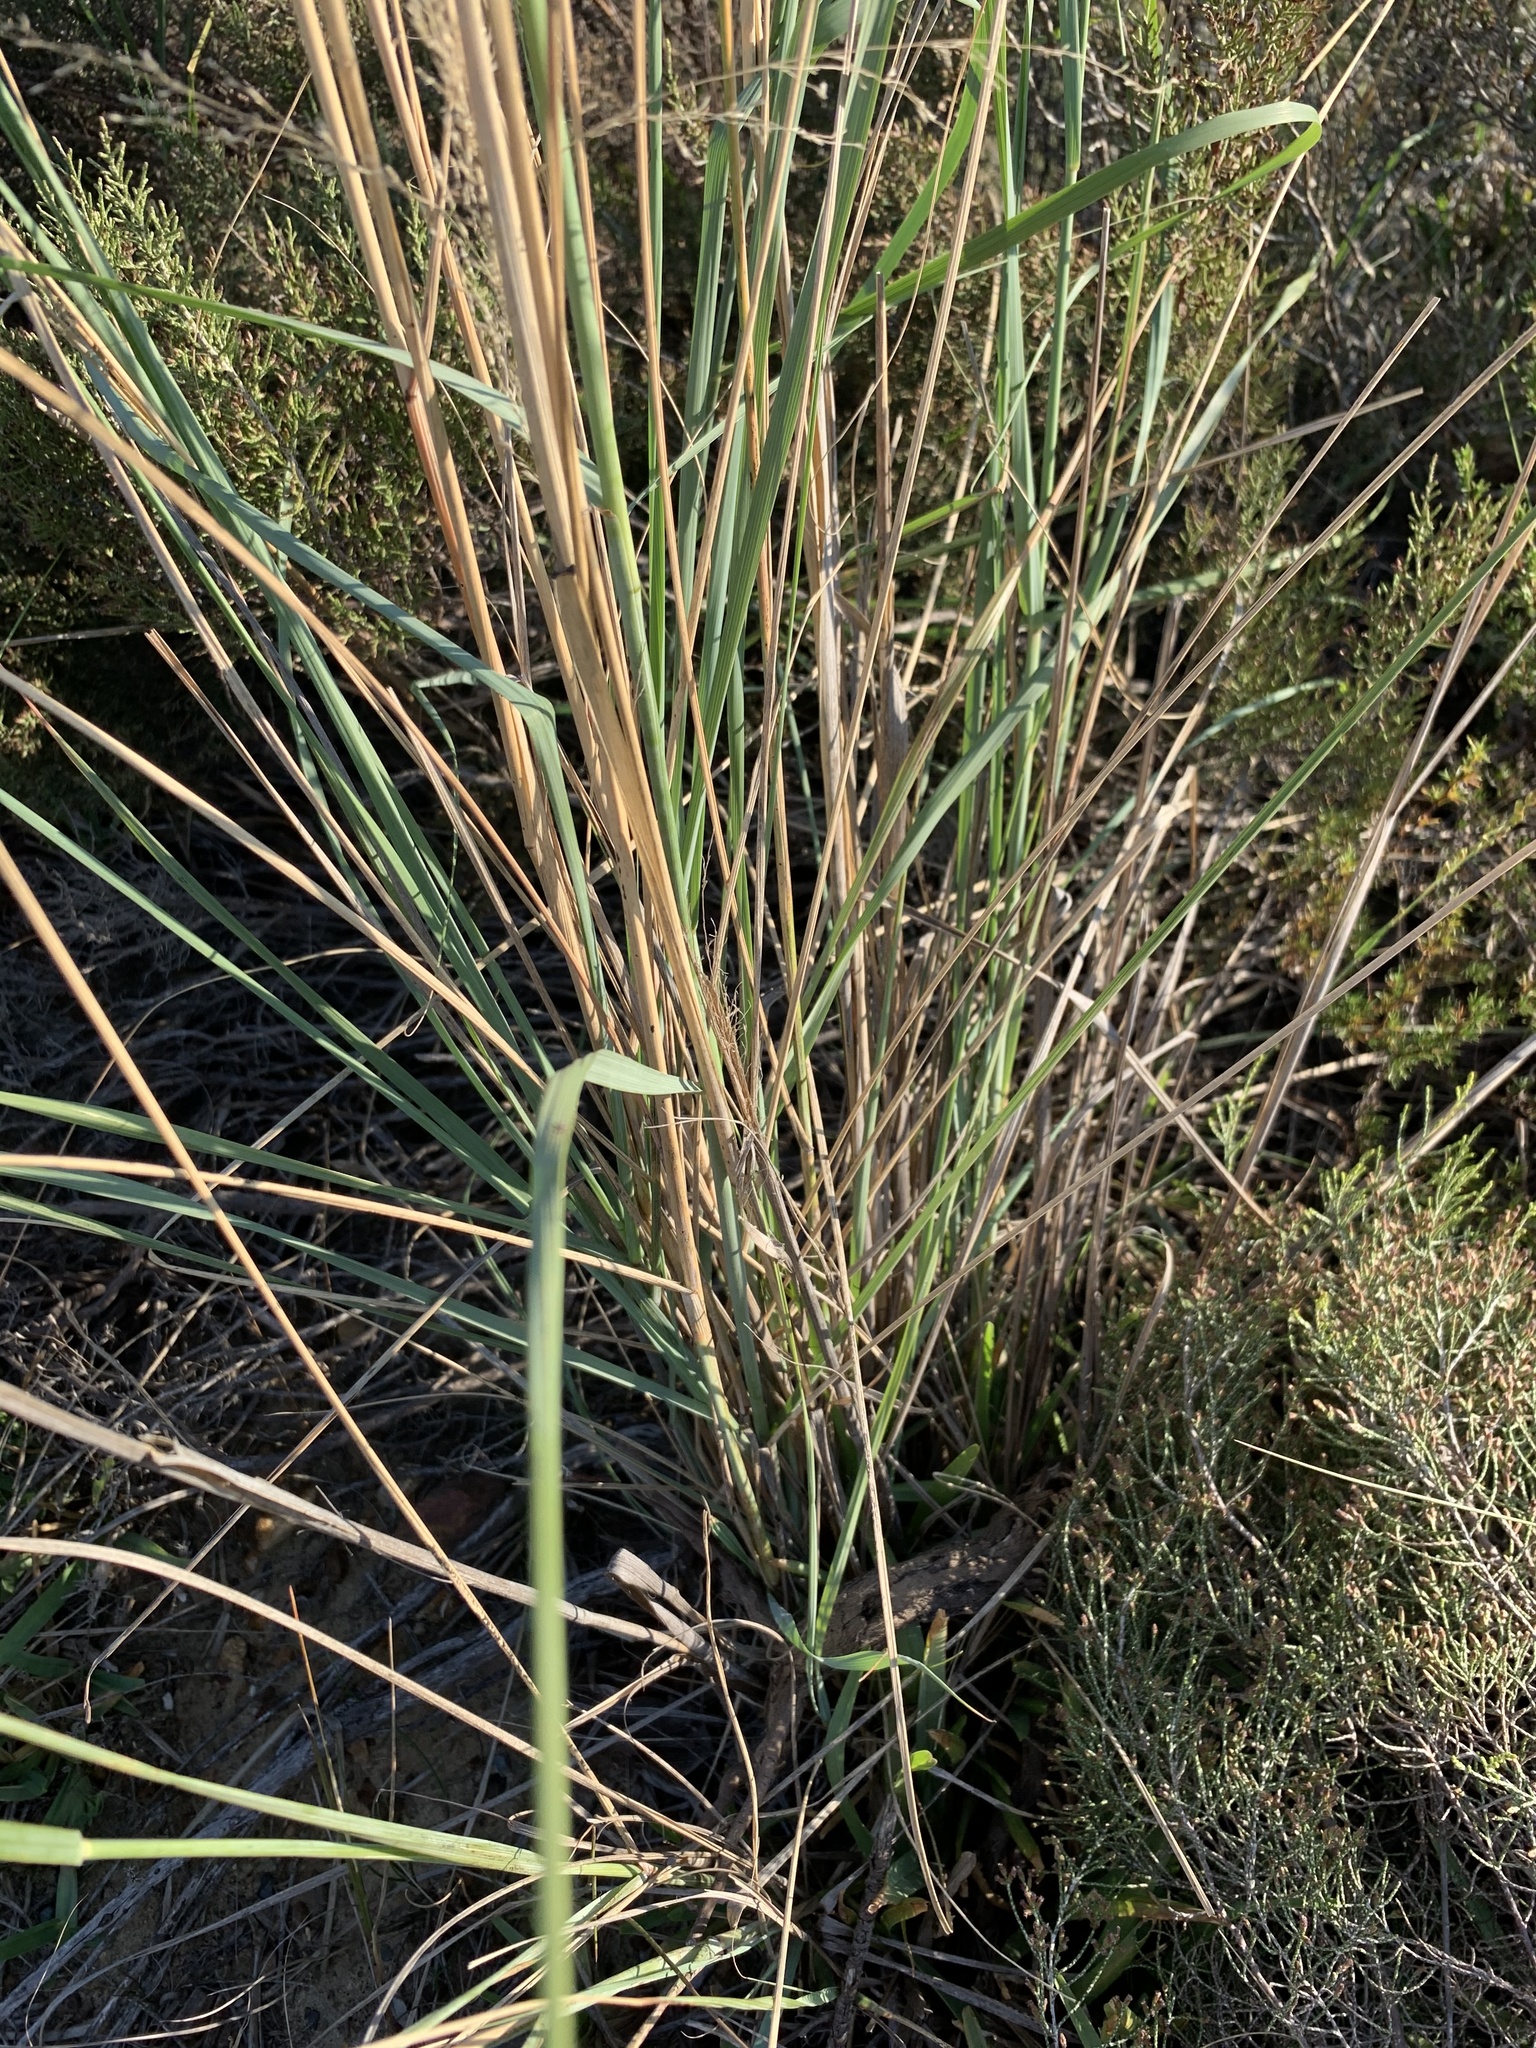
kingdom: Plantae
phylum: Tracheophyta
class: Liliopsida
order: Poales
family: Poaceae
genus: Eragrostis
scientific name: Eragrostis curvula
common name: African love-grass
